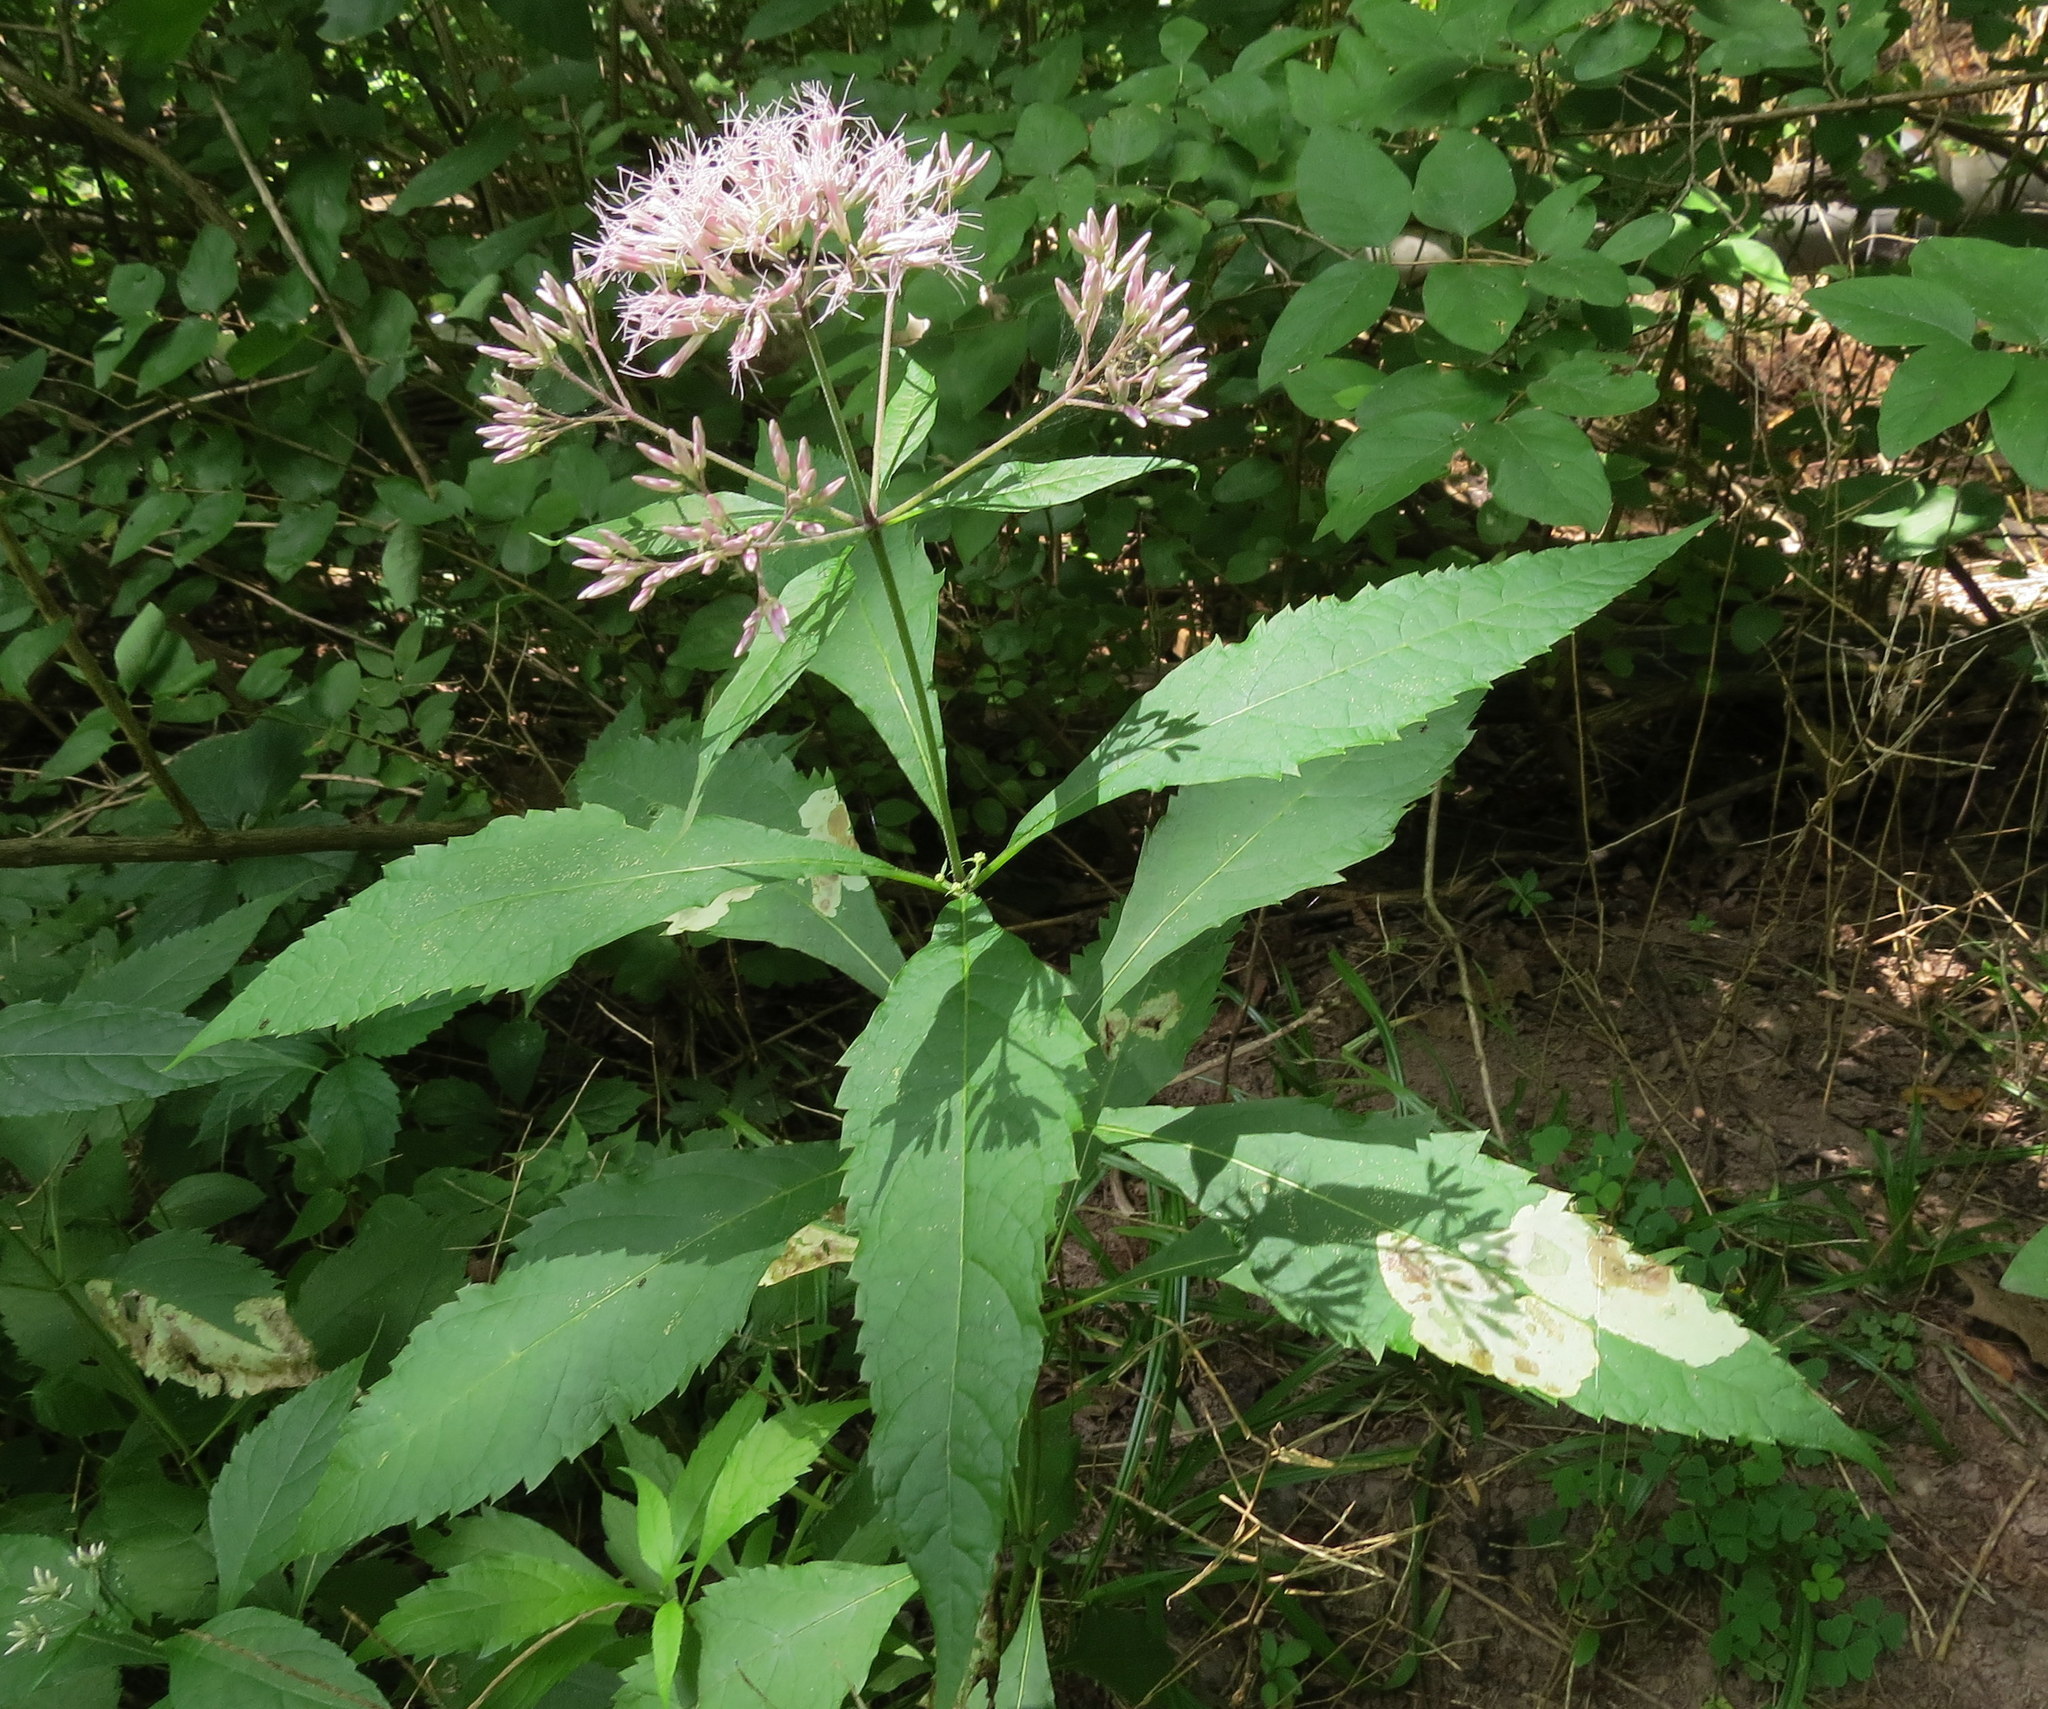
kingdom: Plantae
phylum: Tracheophyta
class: Magnoliopsida
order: Asterales
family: Asteraceae
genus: Eutrochium
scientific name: Eutrochium purpureum
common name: Gravelroot
